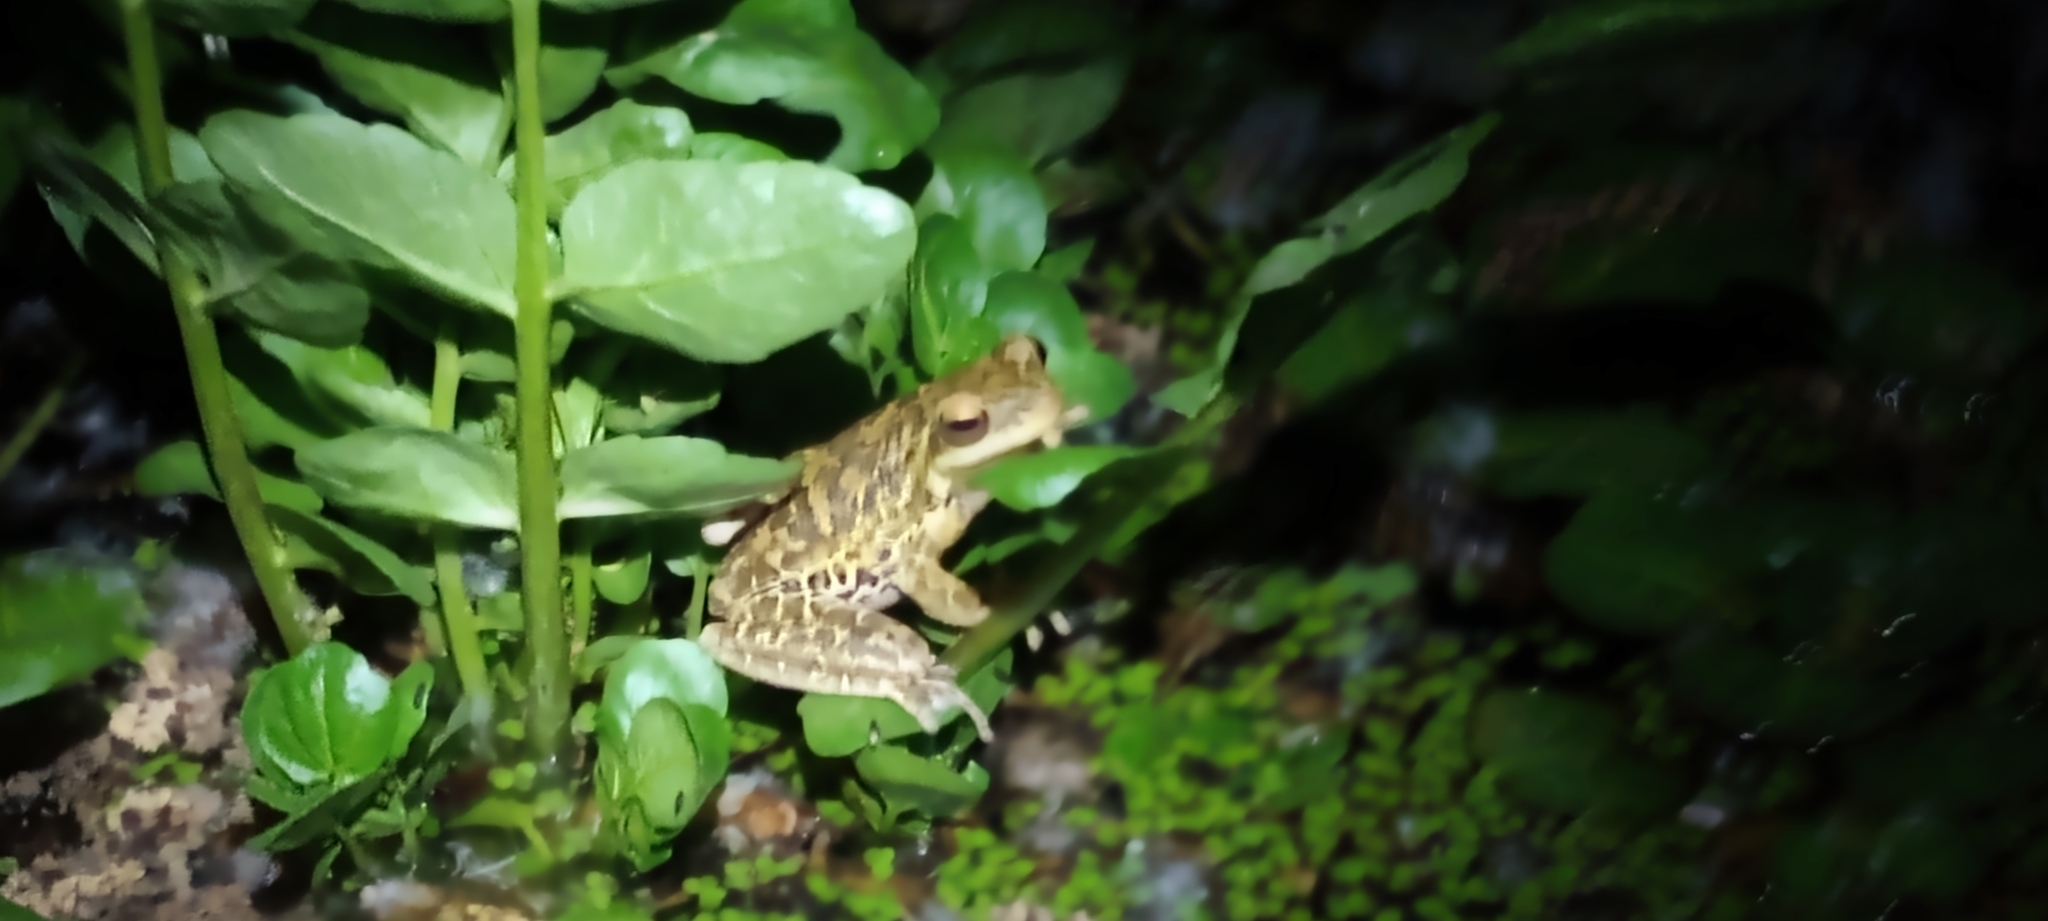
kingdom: Animalia
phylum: Chordata
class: Amphibia
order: Anura
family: Hylidae
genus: Boana
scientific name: Boana pulchella
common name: Montevideo treefrog
